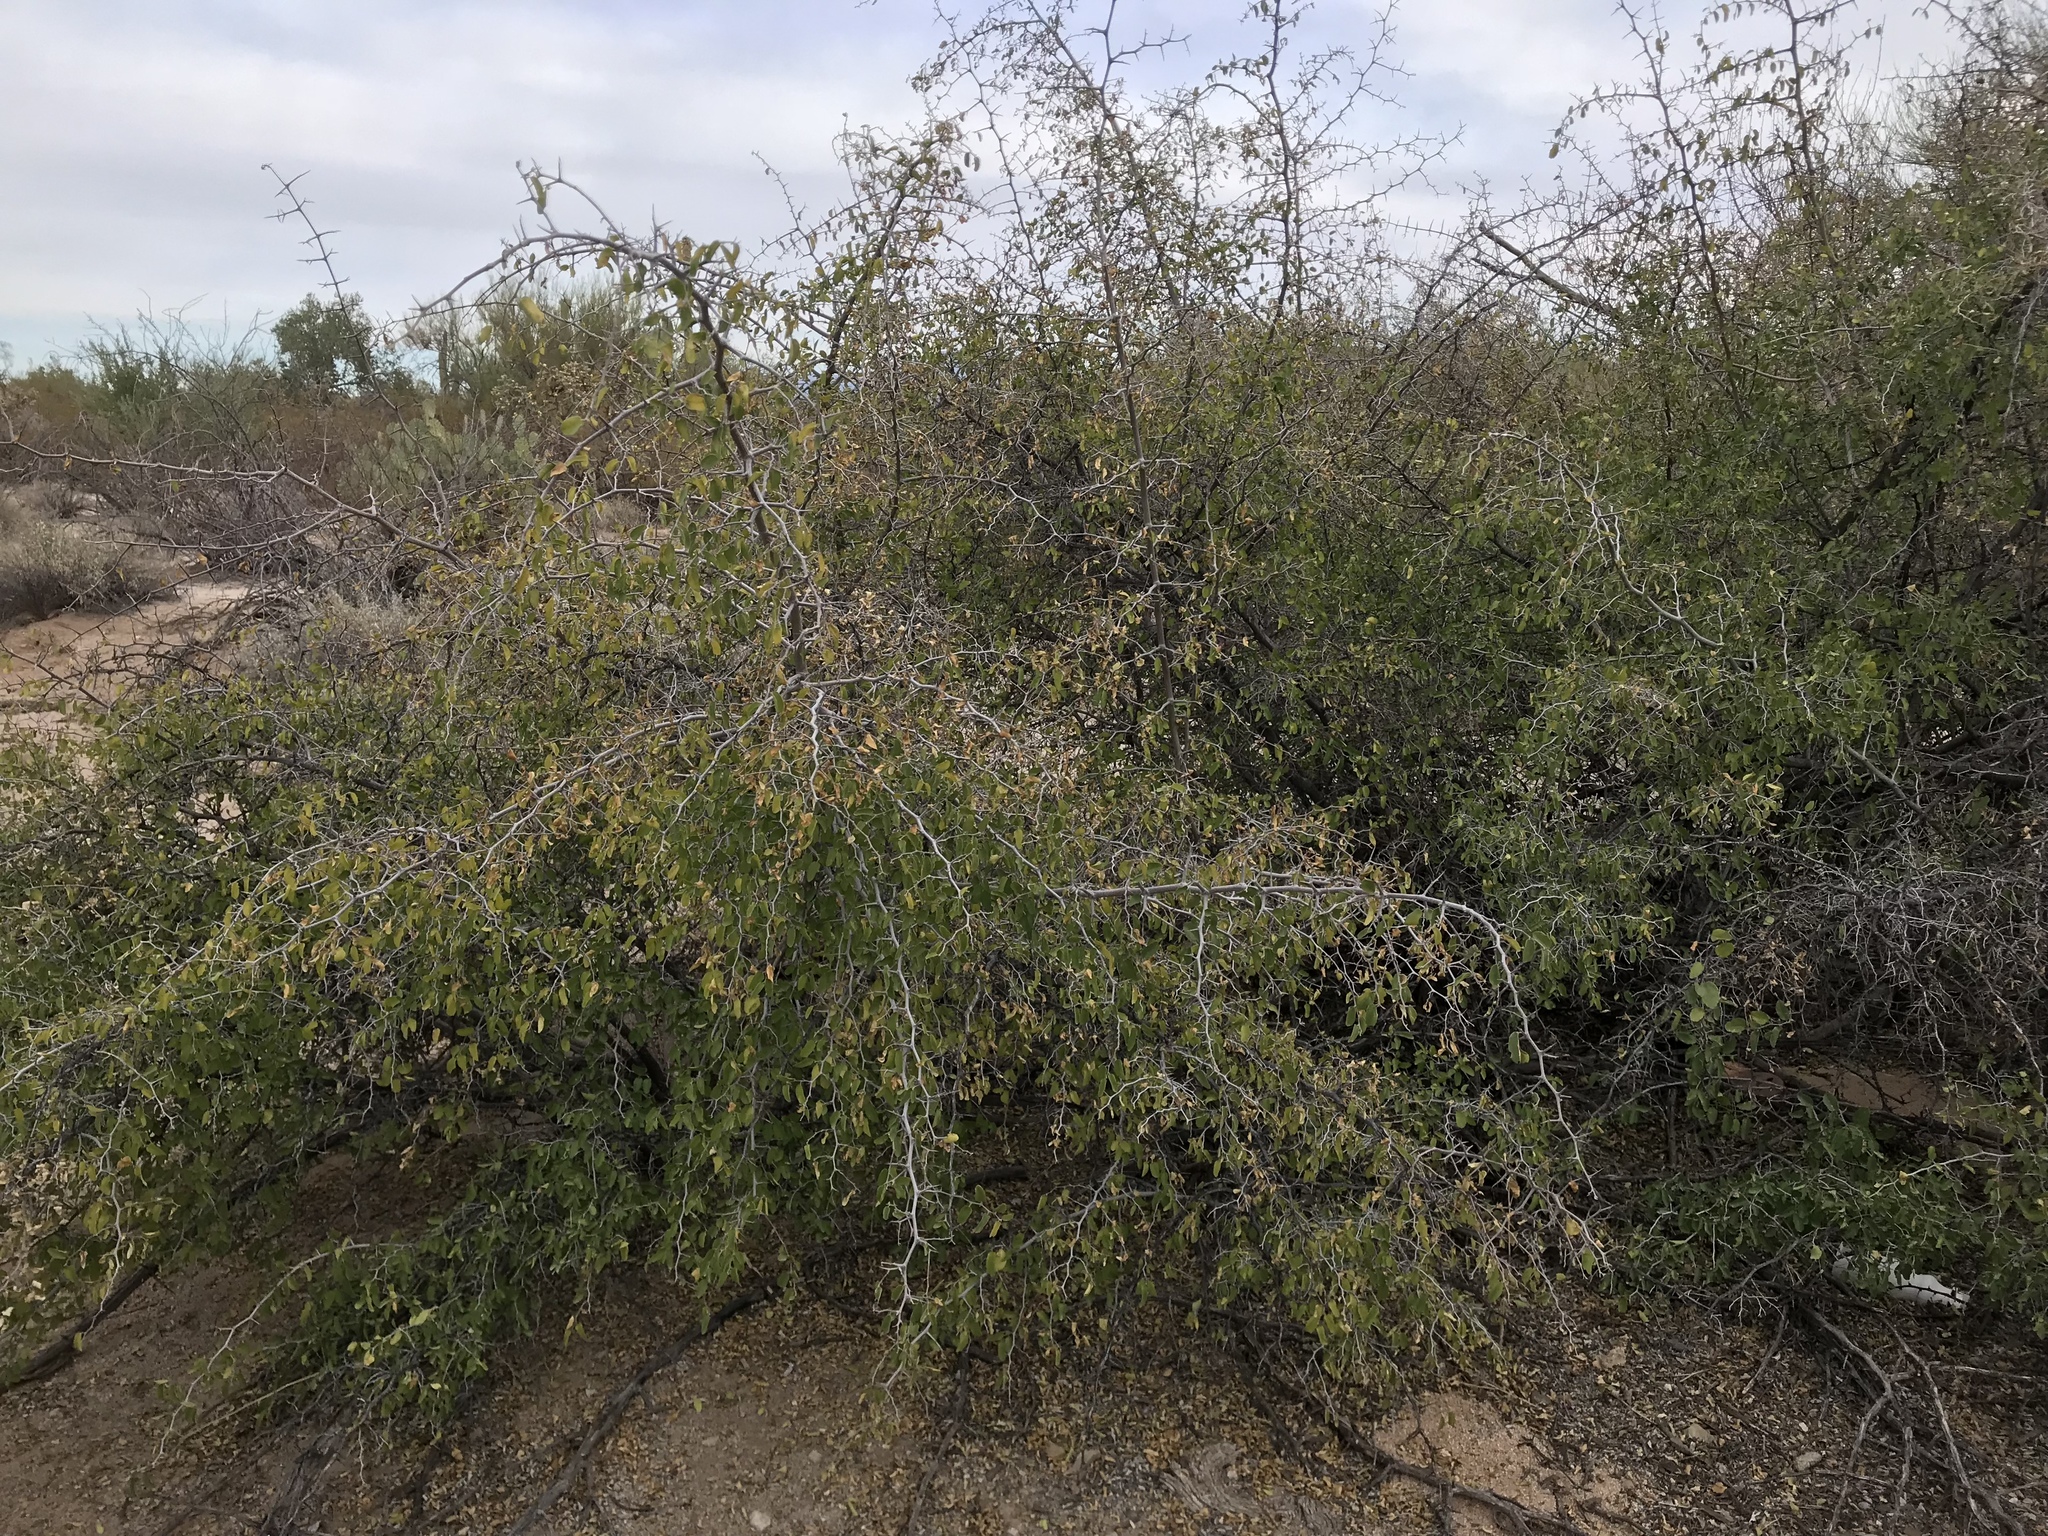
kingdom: Plantae
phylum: Tracheophyta
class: Magnoliopsida
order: Rosales
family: Cannabaceae
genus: Celtis
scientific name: Celtis pallida
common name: Desert hackberry
